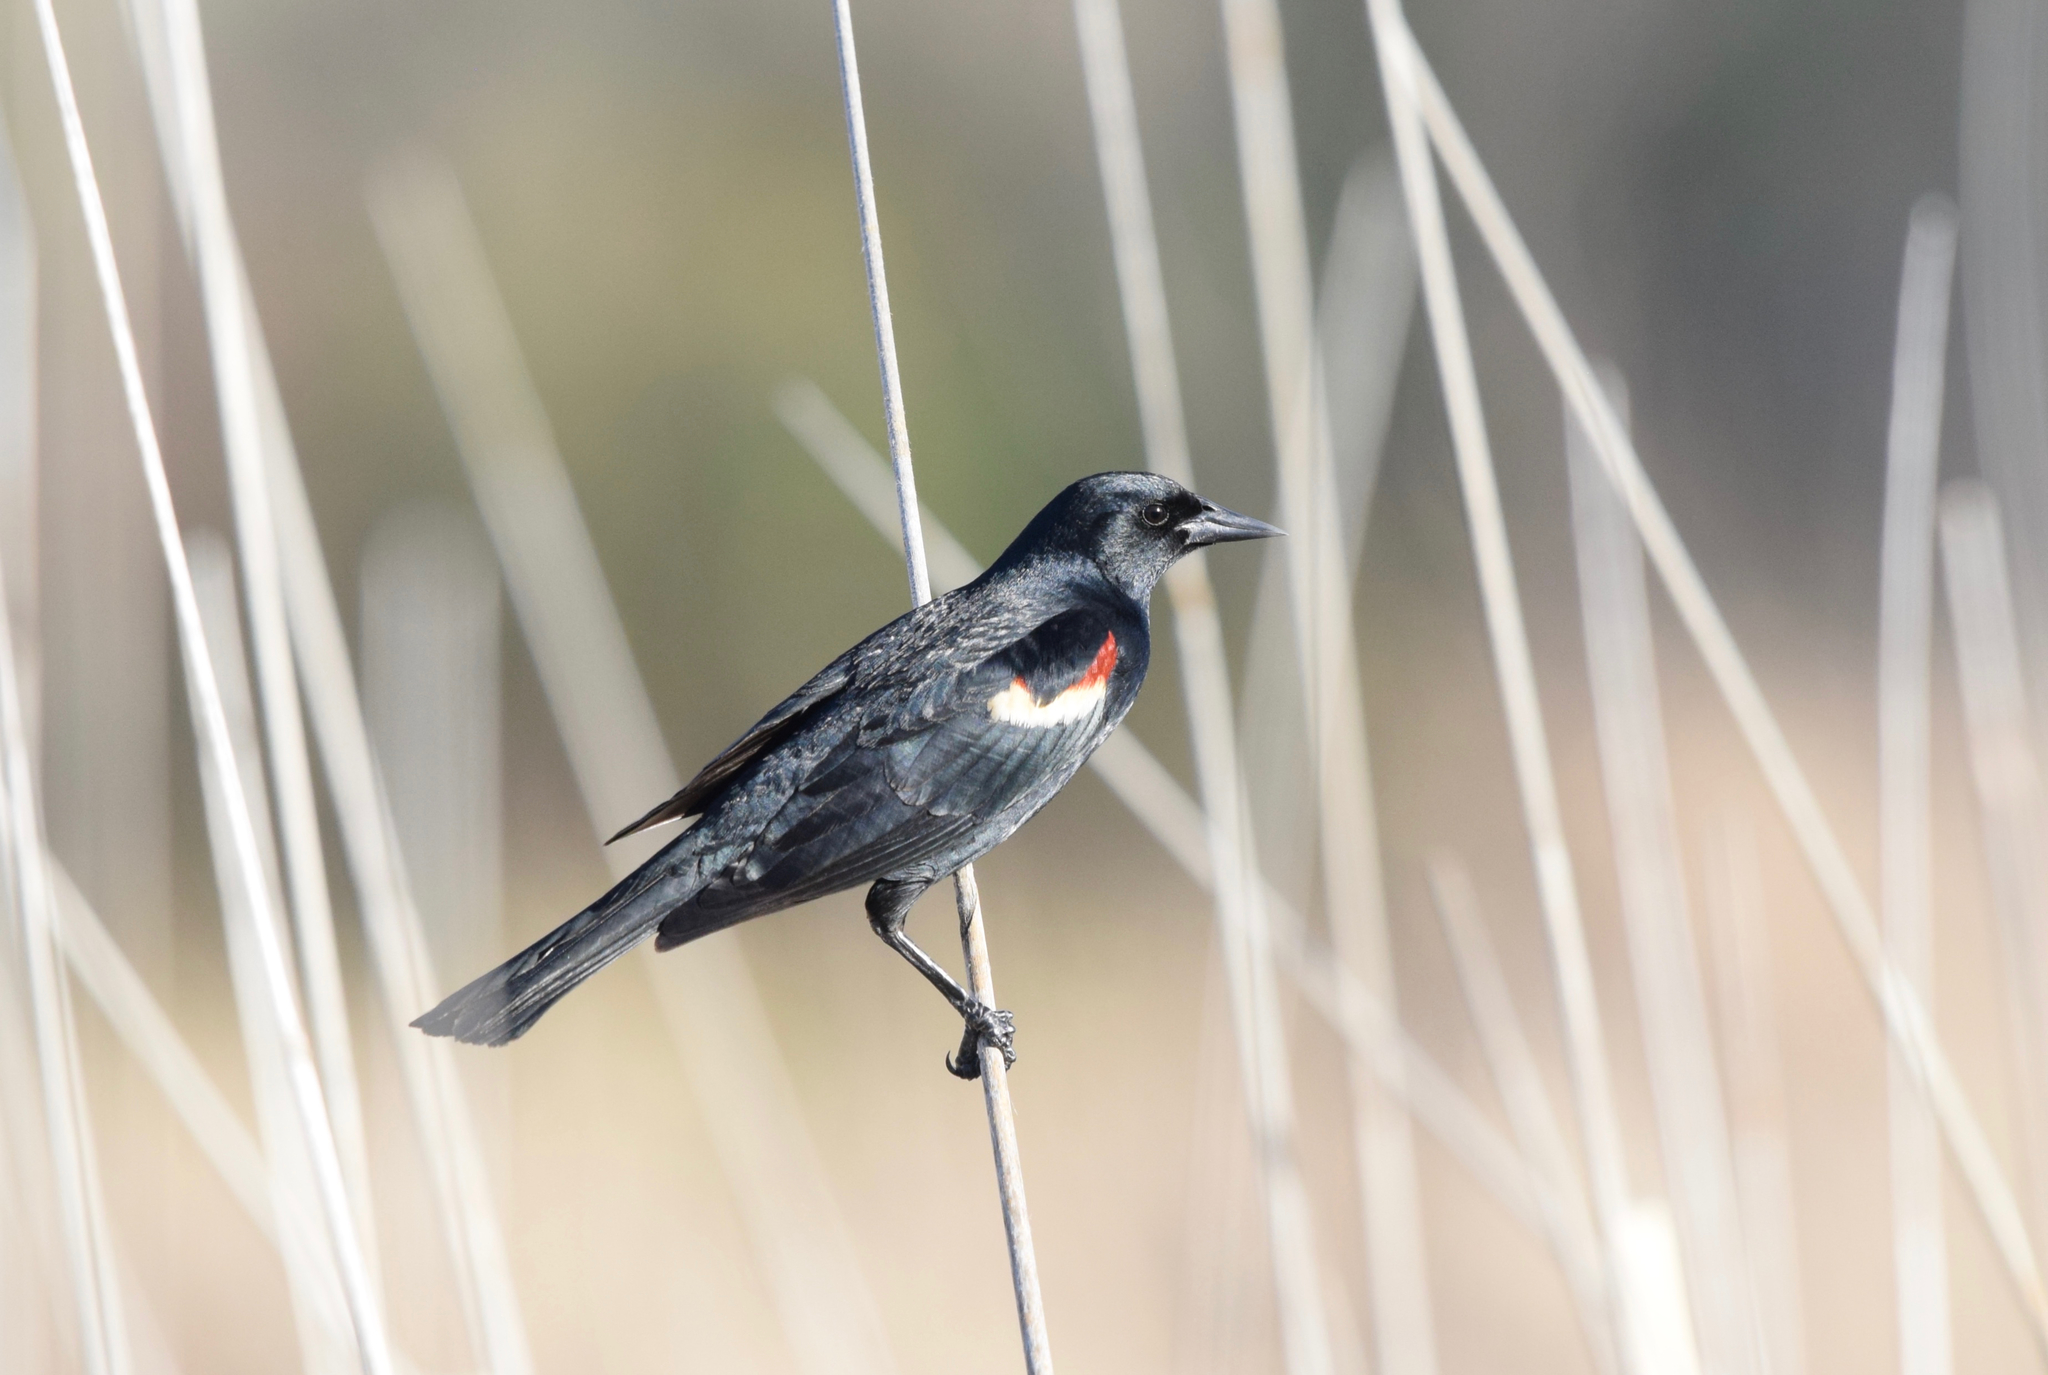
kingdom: Animalia
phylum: Chordata
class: Aves
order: Passeriformes
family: Icteridae
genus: Agelaius
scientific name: Agelaius tricolor
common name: Tricolored blackbird
